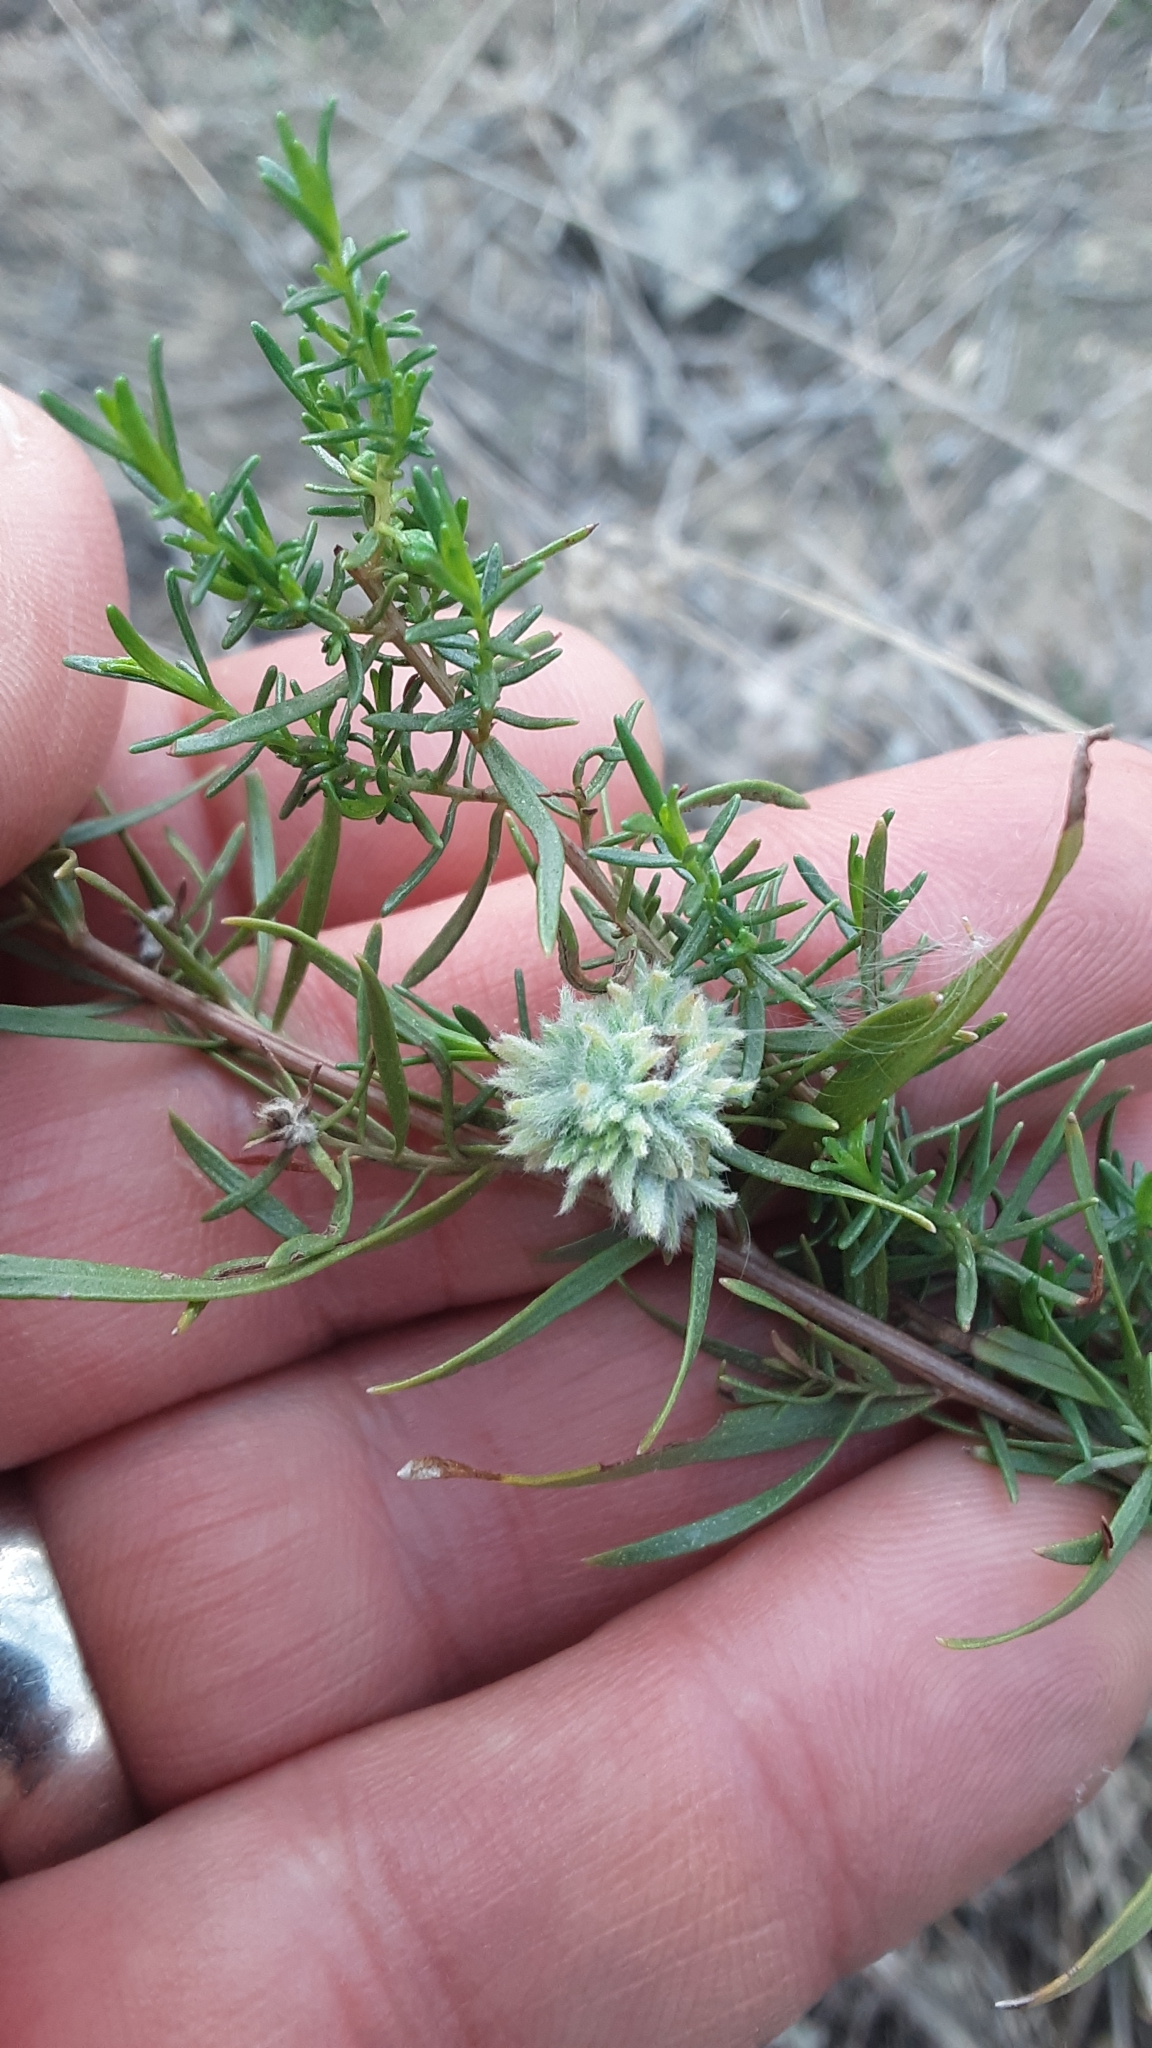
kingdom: Plantae
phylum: Tracheophyta
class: Magnoliopsida
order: Asterales
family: Asteraceae
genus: Artemisia
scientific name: Artemisia campestris
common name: Field wormwood
